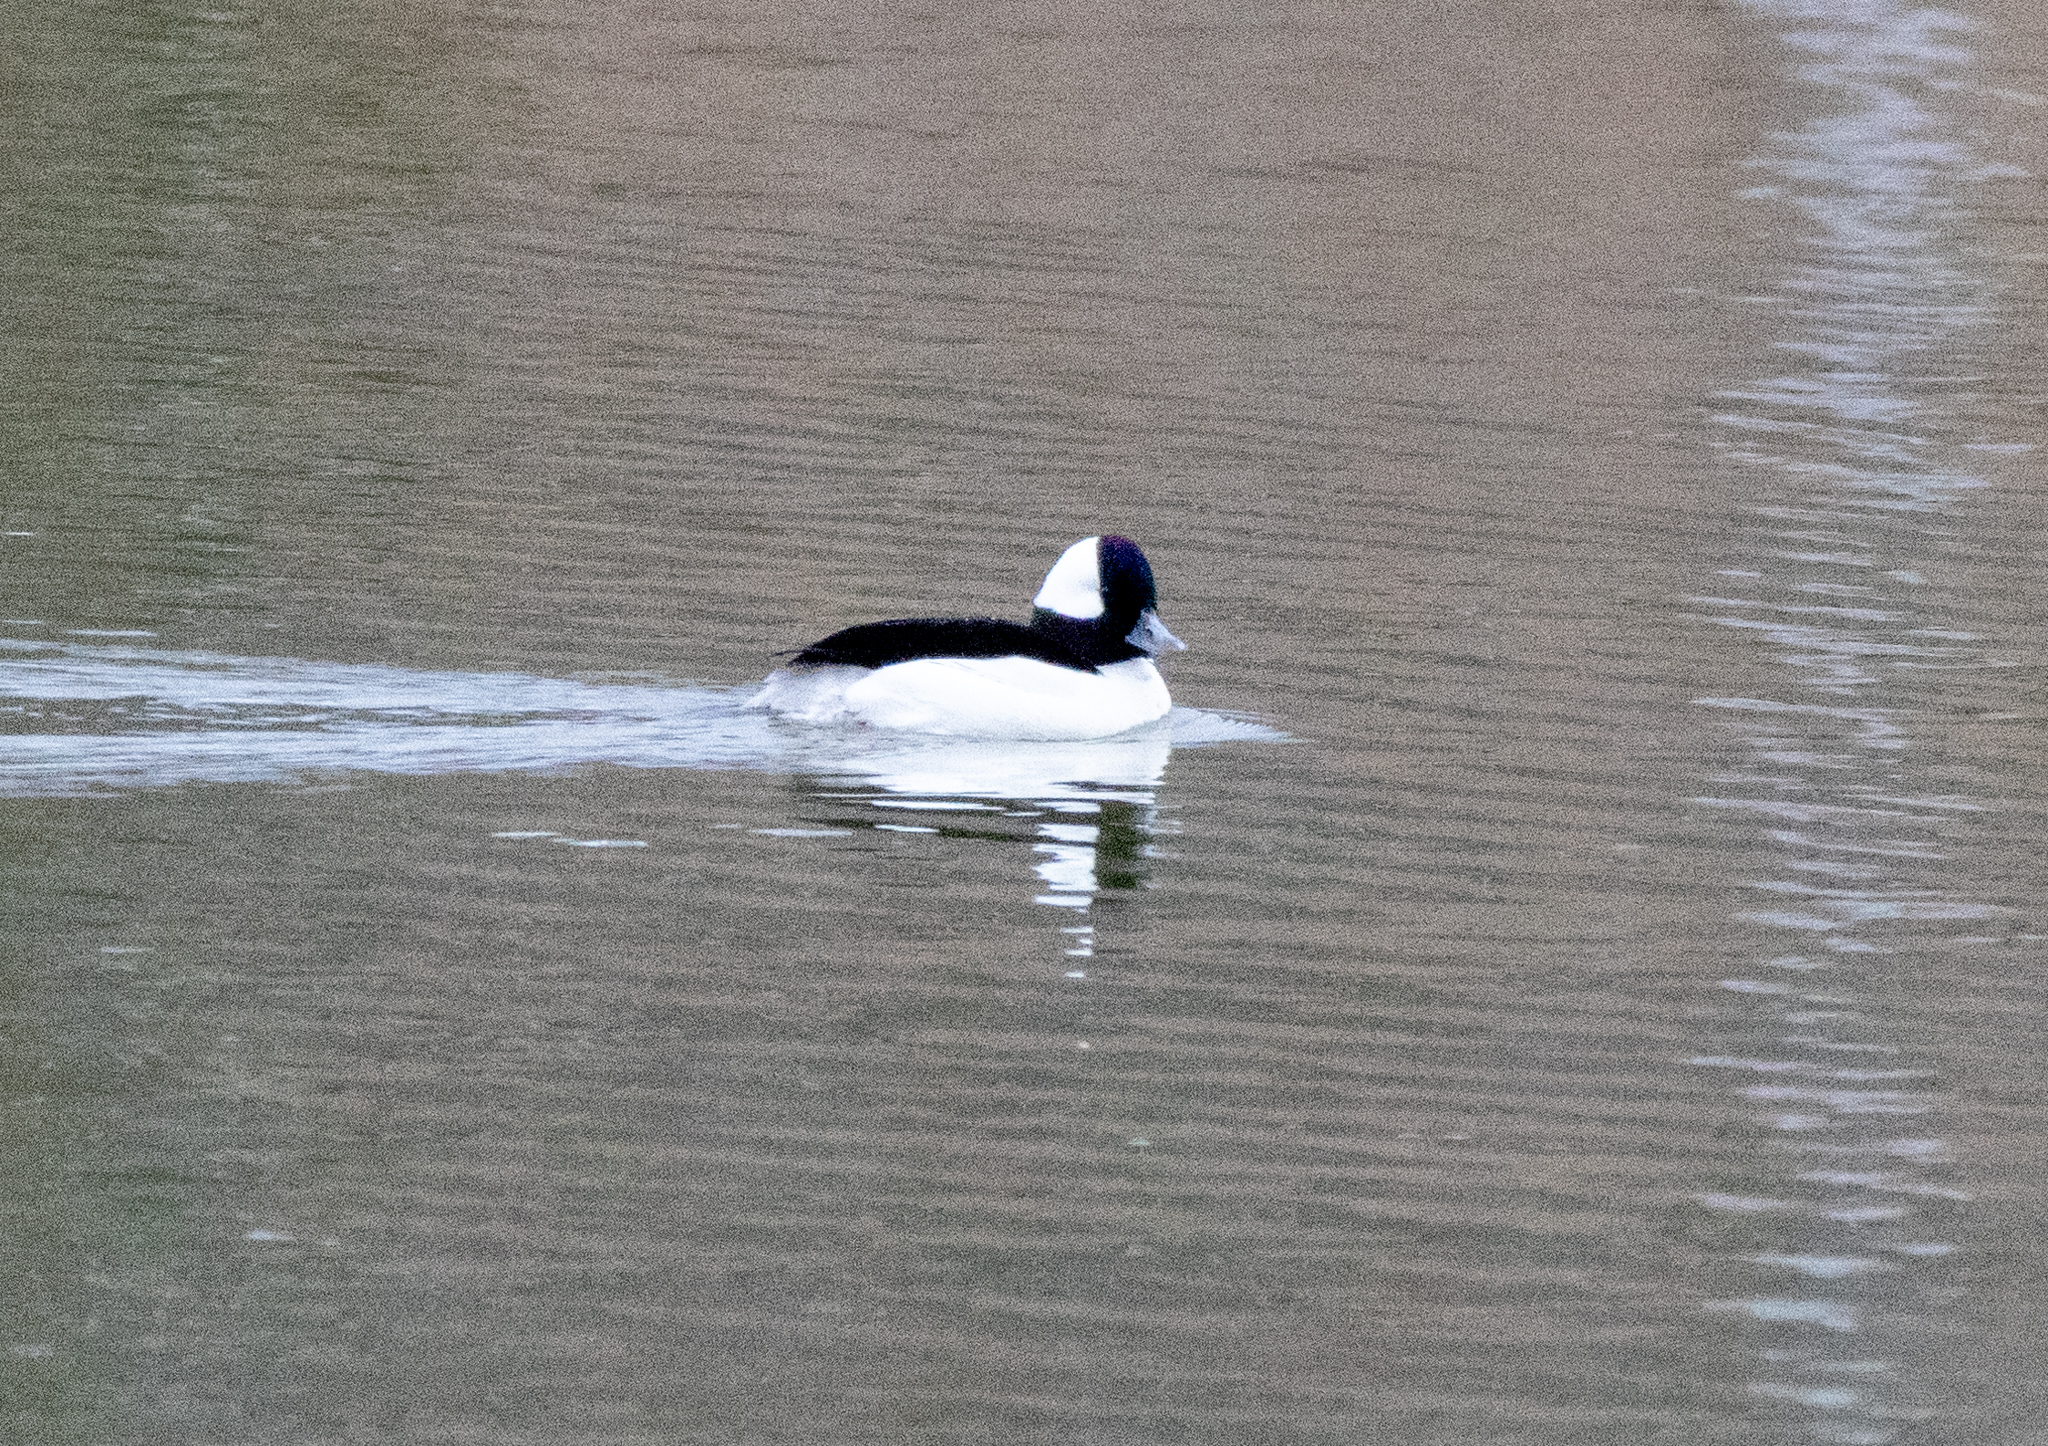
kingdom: Animalia
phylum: Chordata
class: Aves
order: Anseriformes
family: Anatidae
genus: Bucephala
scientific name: Bucephala albeola
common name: Bufflehead
